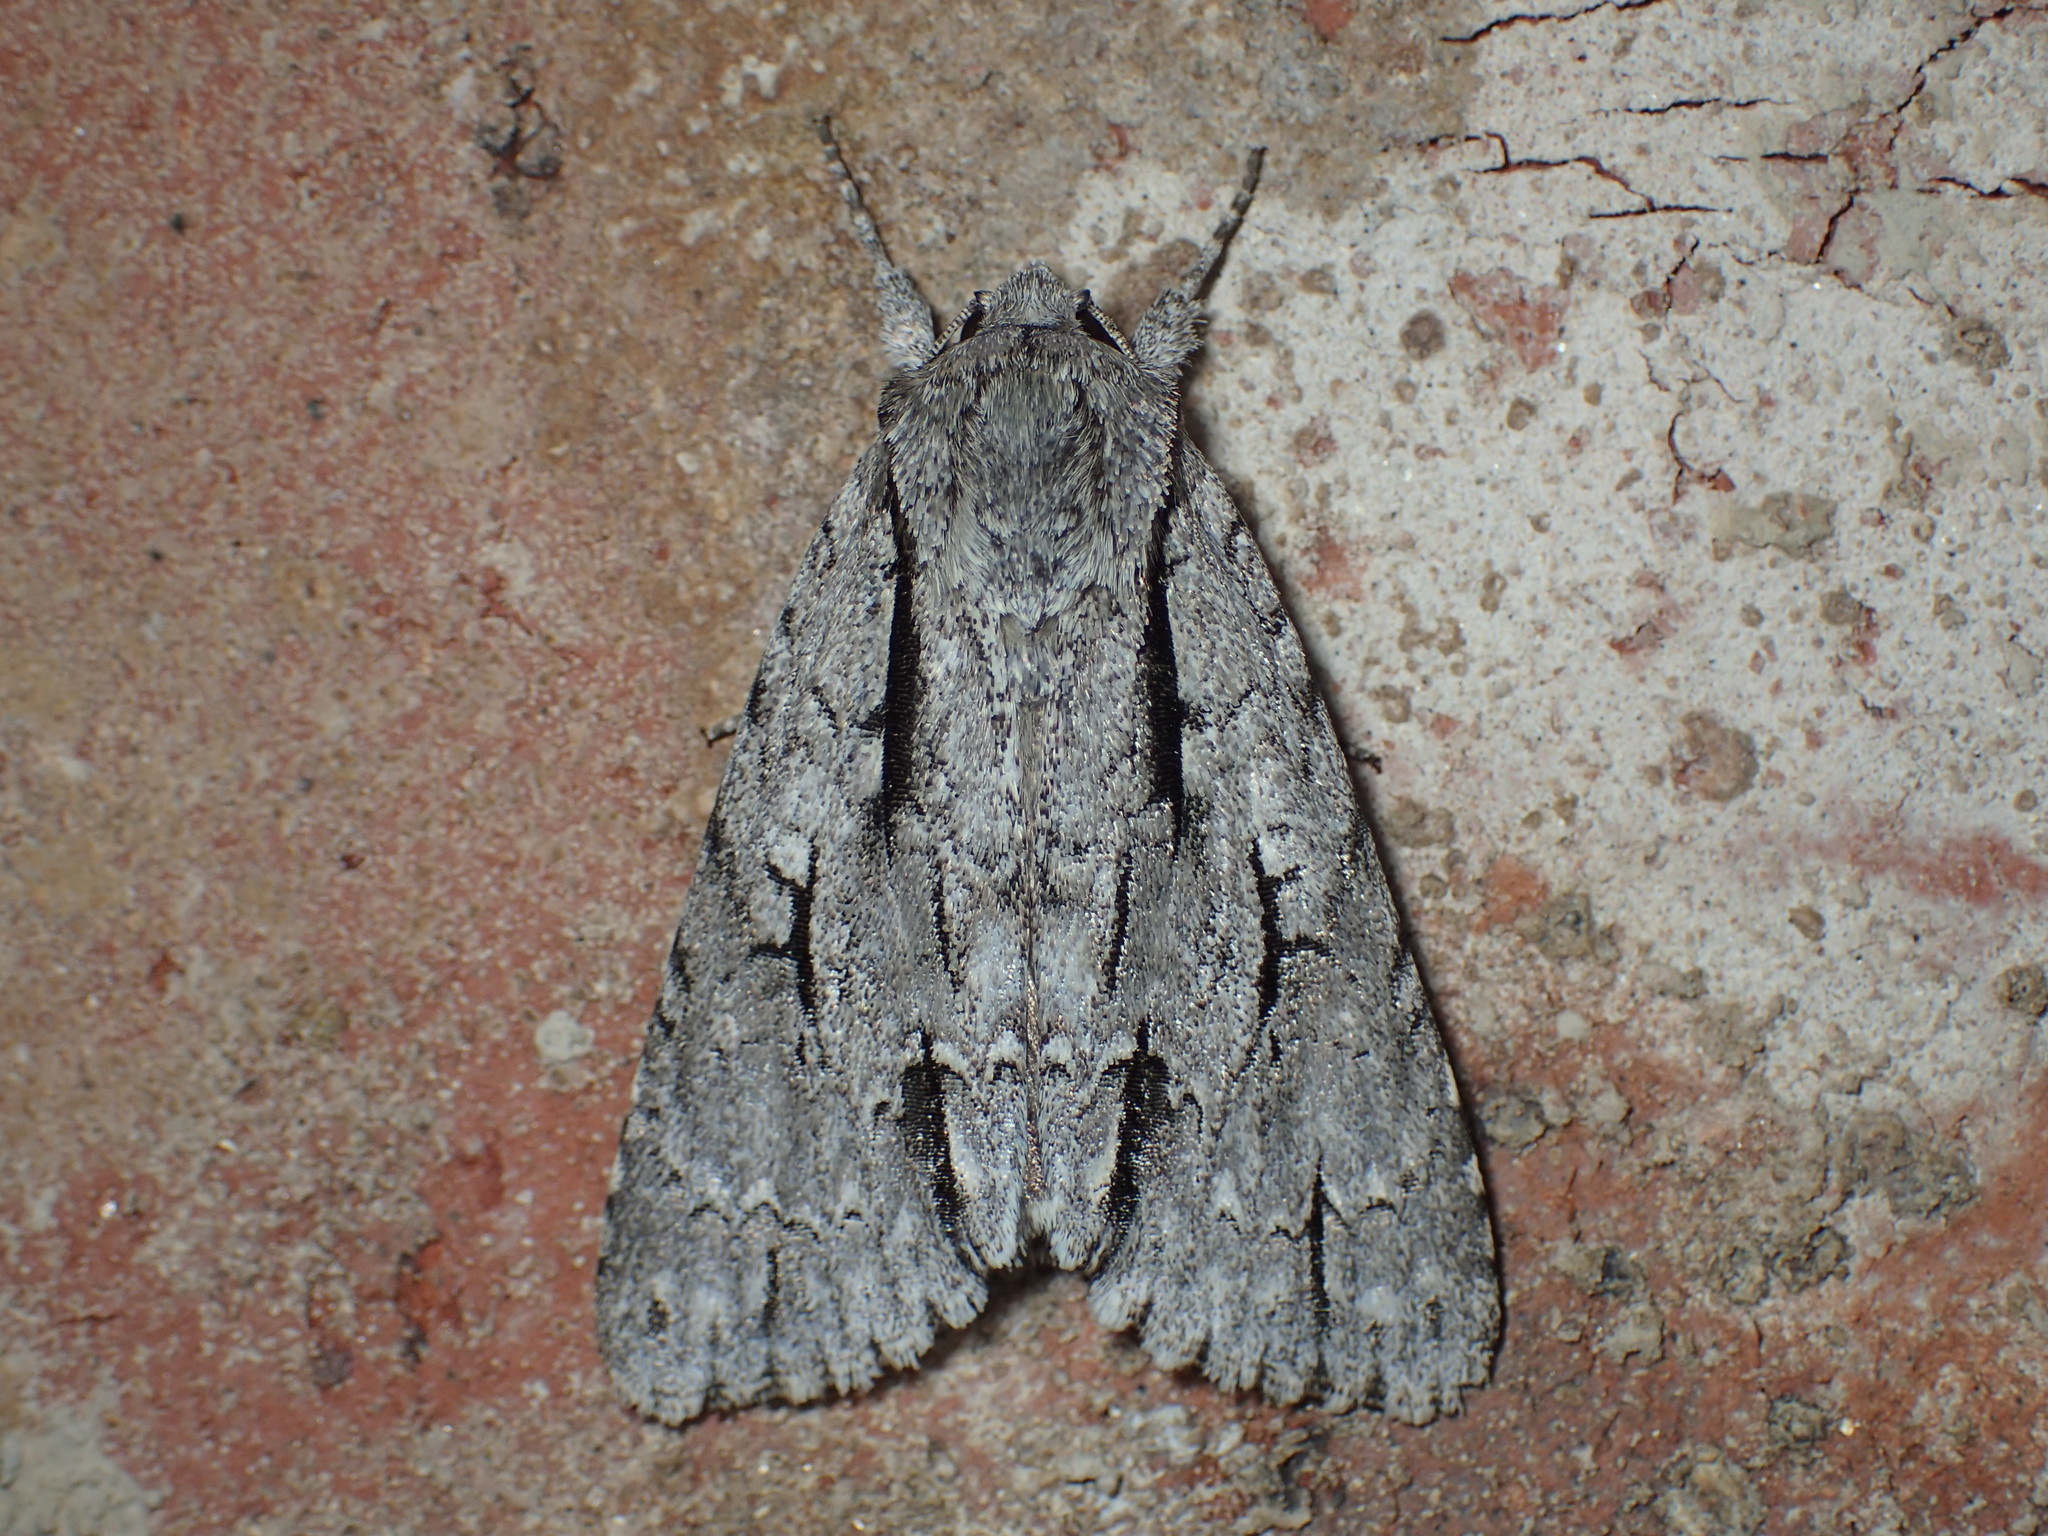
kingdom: Animalia
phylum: Arthropoda
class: Insecta
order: Lepidoptera
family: Noctuidae
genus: Acronicta
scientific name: Acronicta hasta
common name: Cherry dagger
